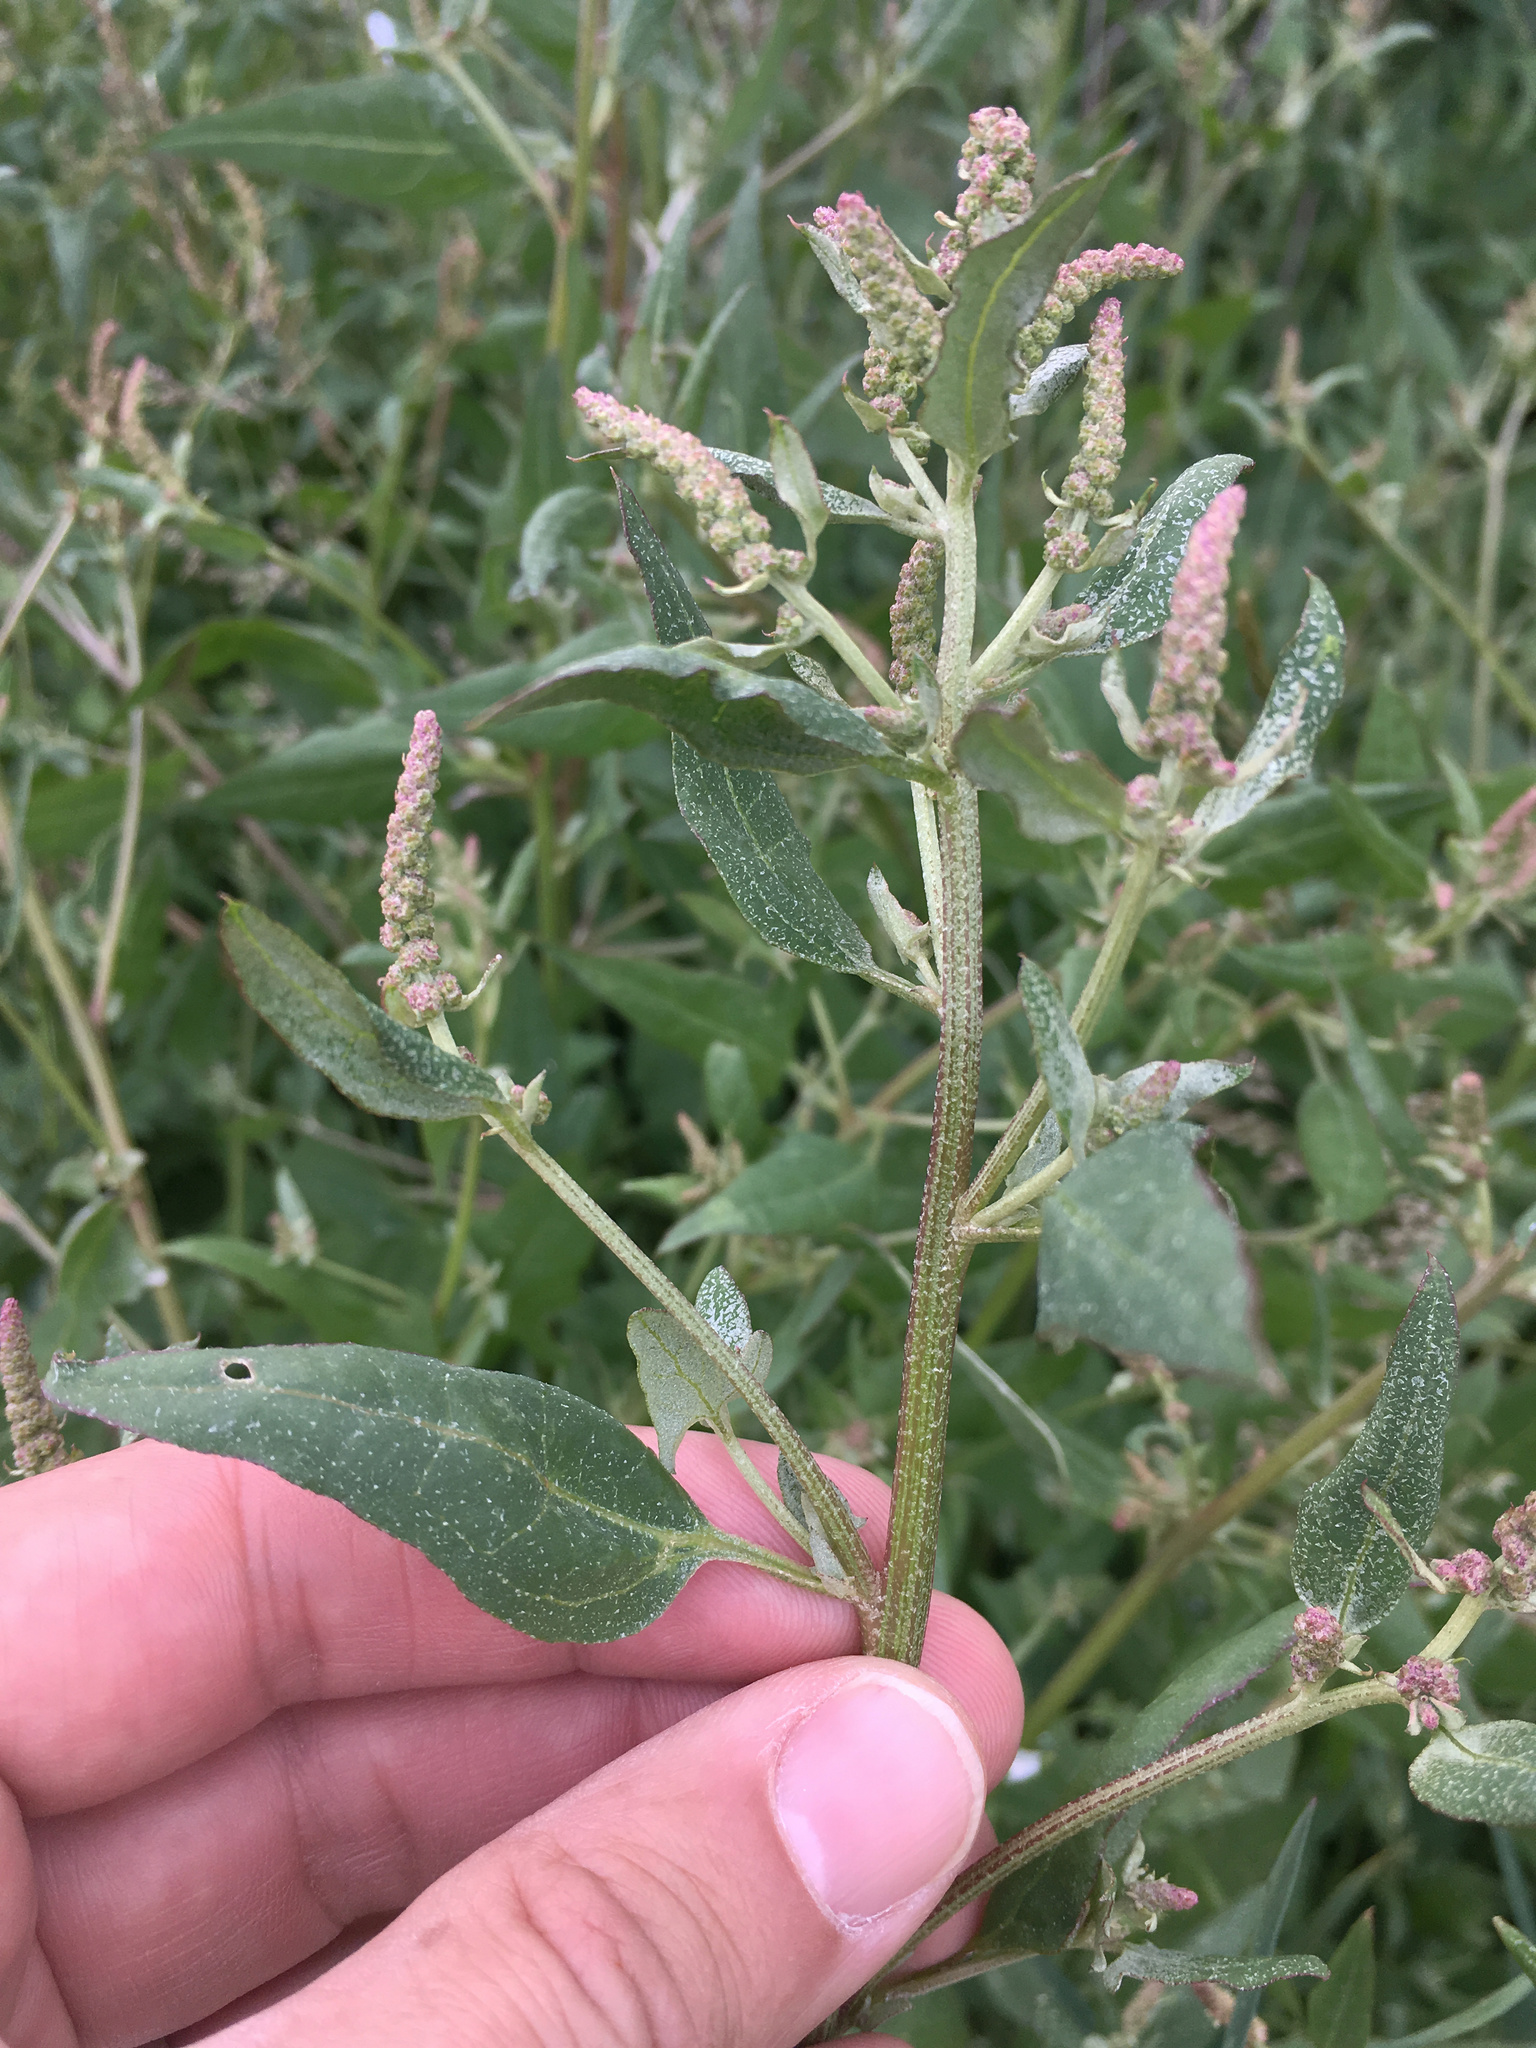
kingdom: Plantae
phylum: Tracheophyta
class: Magnoliopsida
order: Caryophyllales
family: Amaranthaceae
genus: Atriplex
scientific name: Atriplex prostrata
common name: Spear-leaved orache
